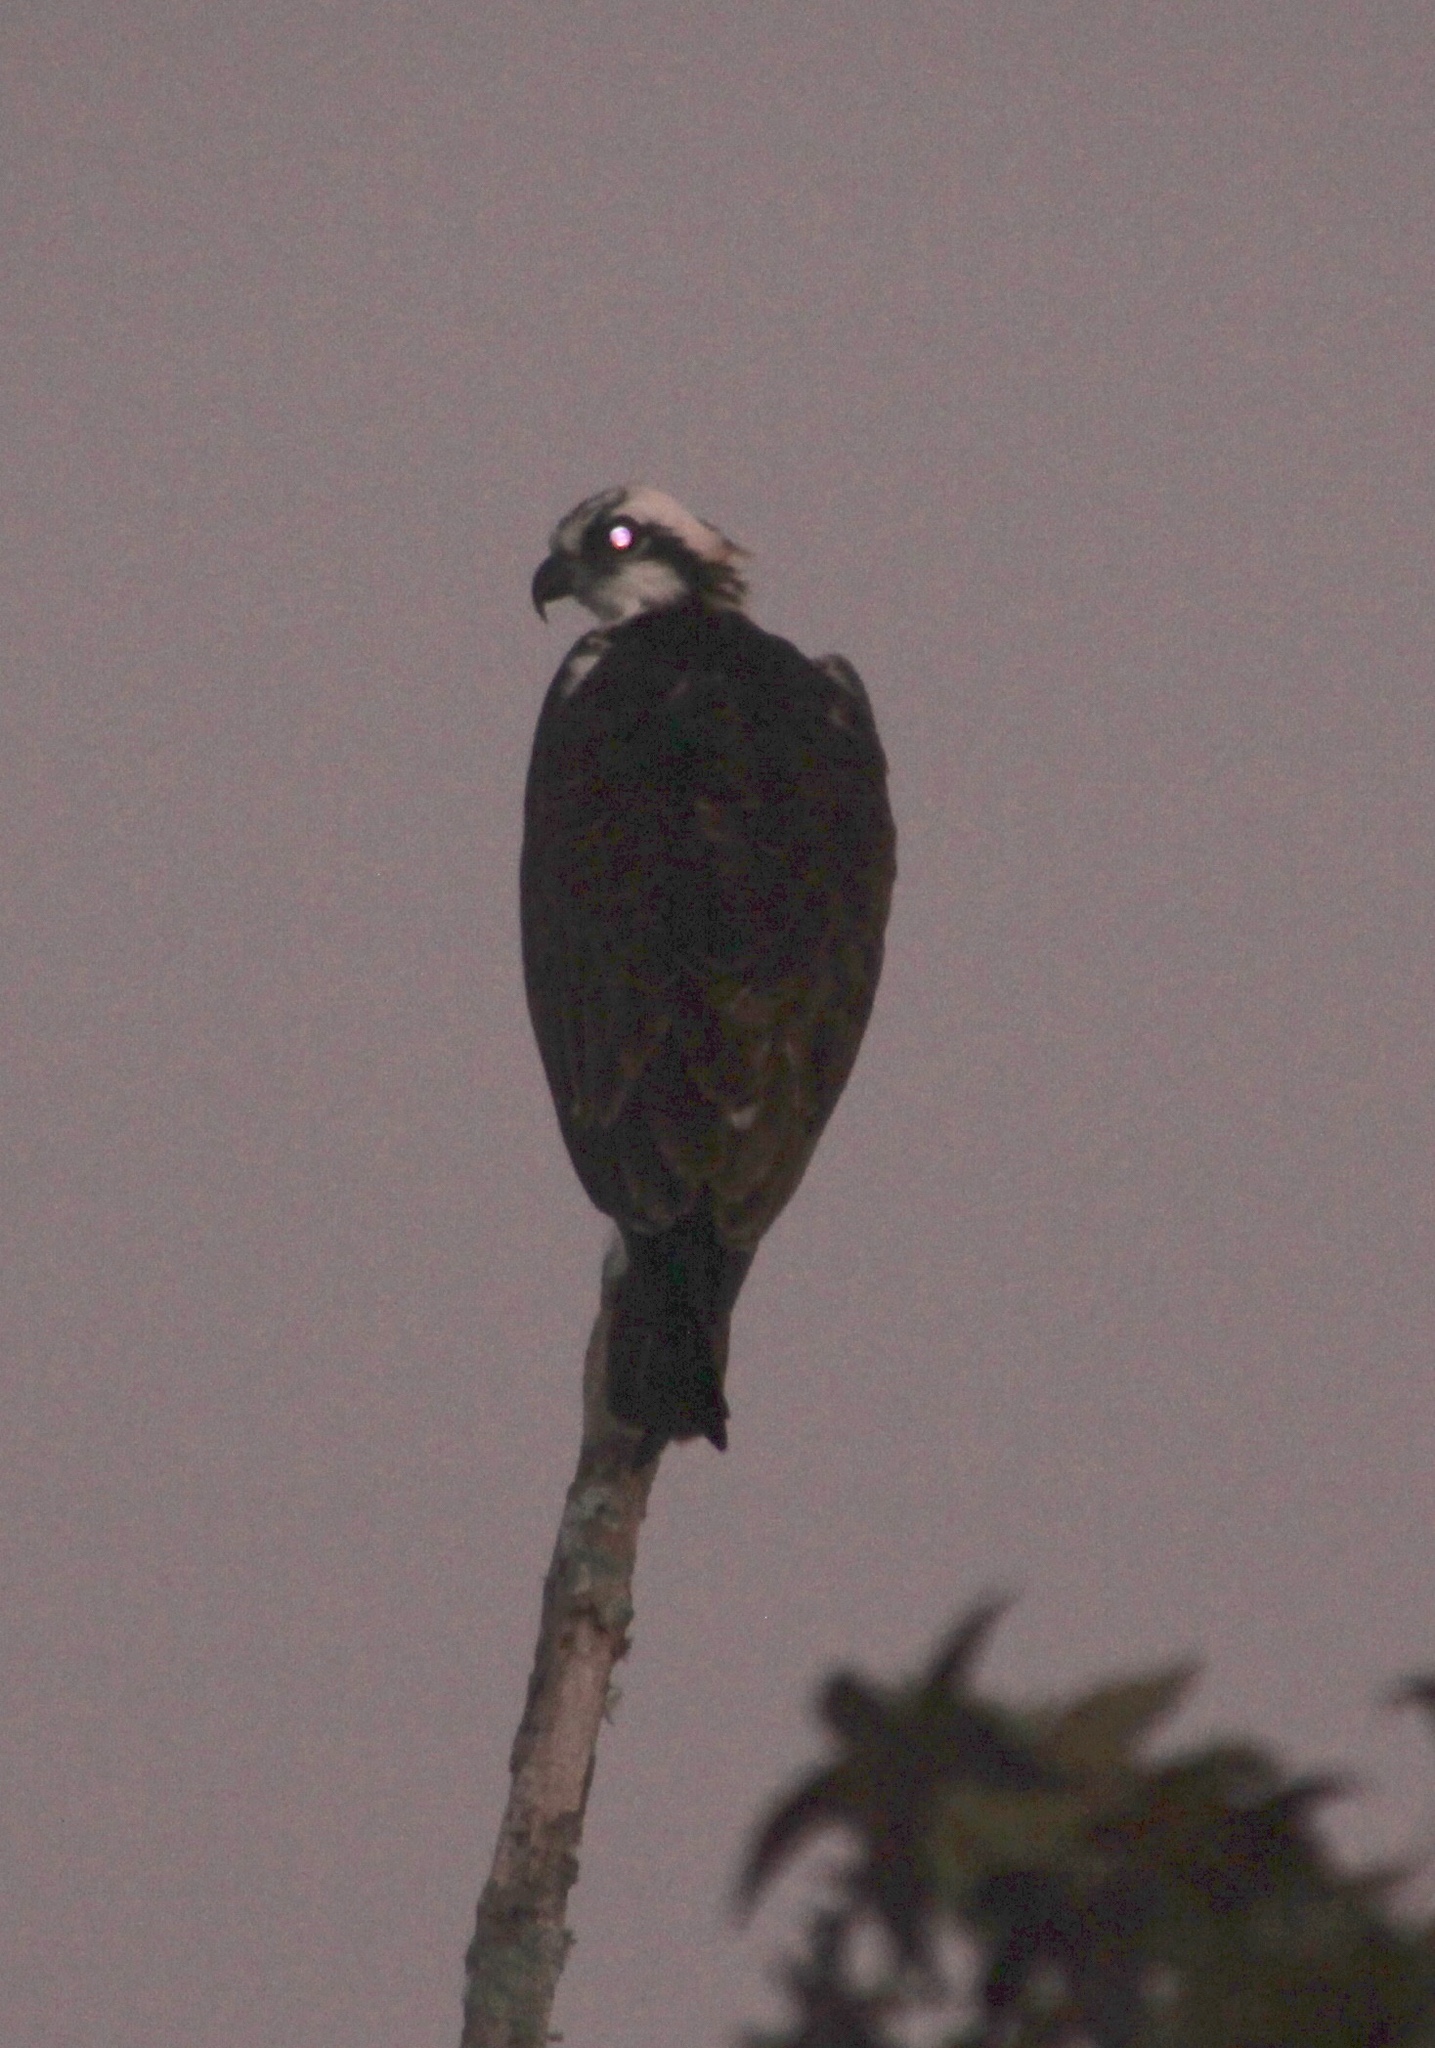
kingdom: Animalia
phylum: Chordata
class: Aves
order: Accipitriformes
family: Pandionidae
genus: Pandion
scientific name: Pandion haliaetus
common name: Osprey
